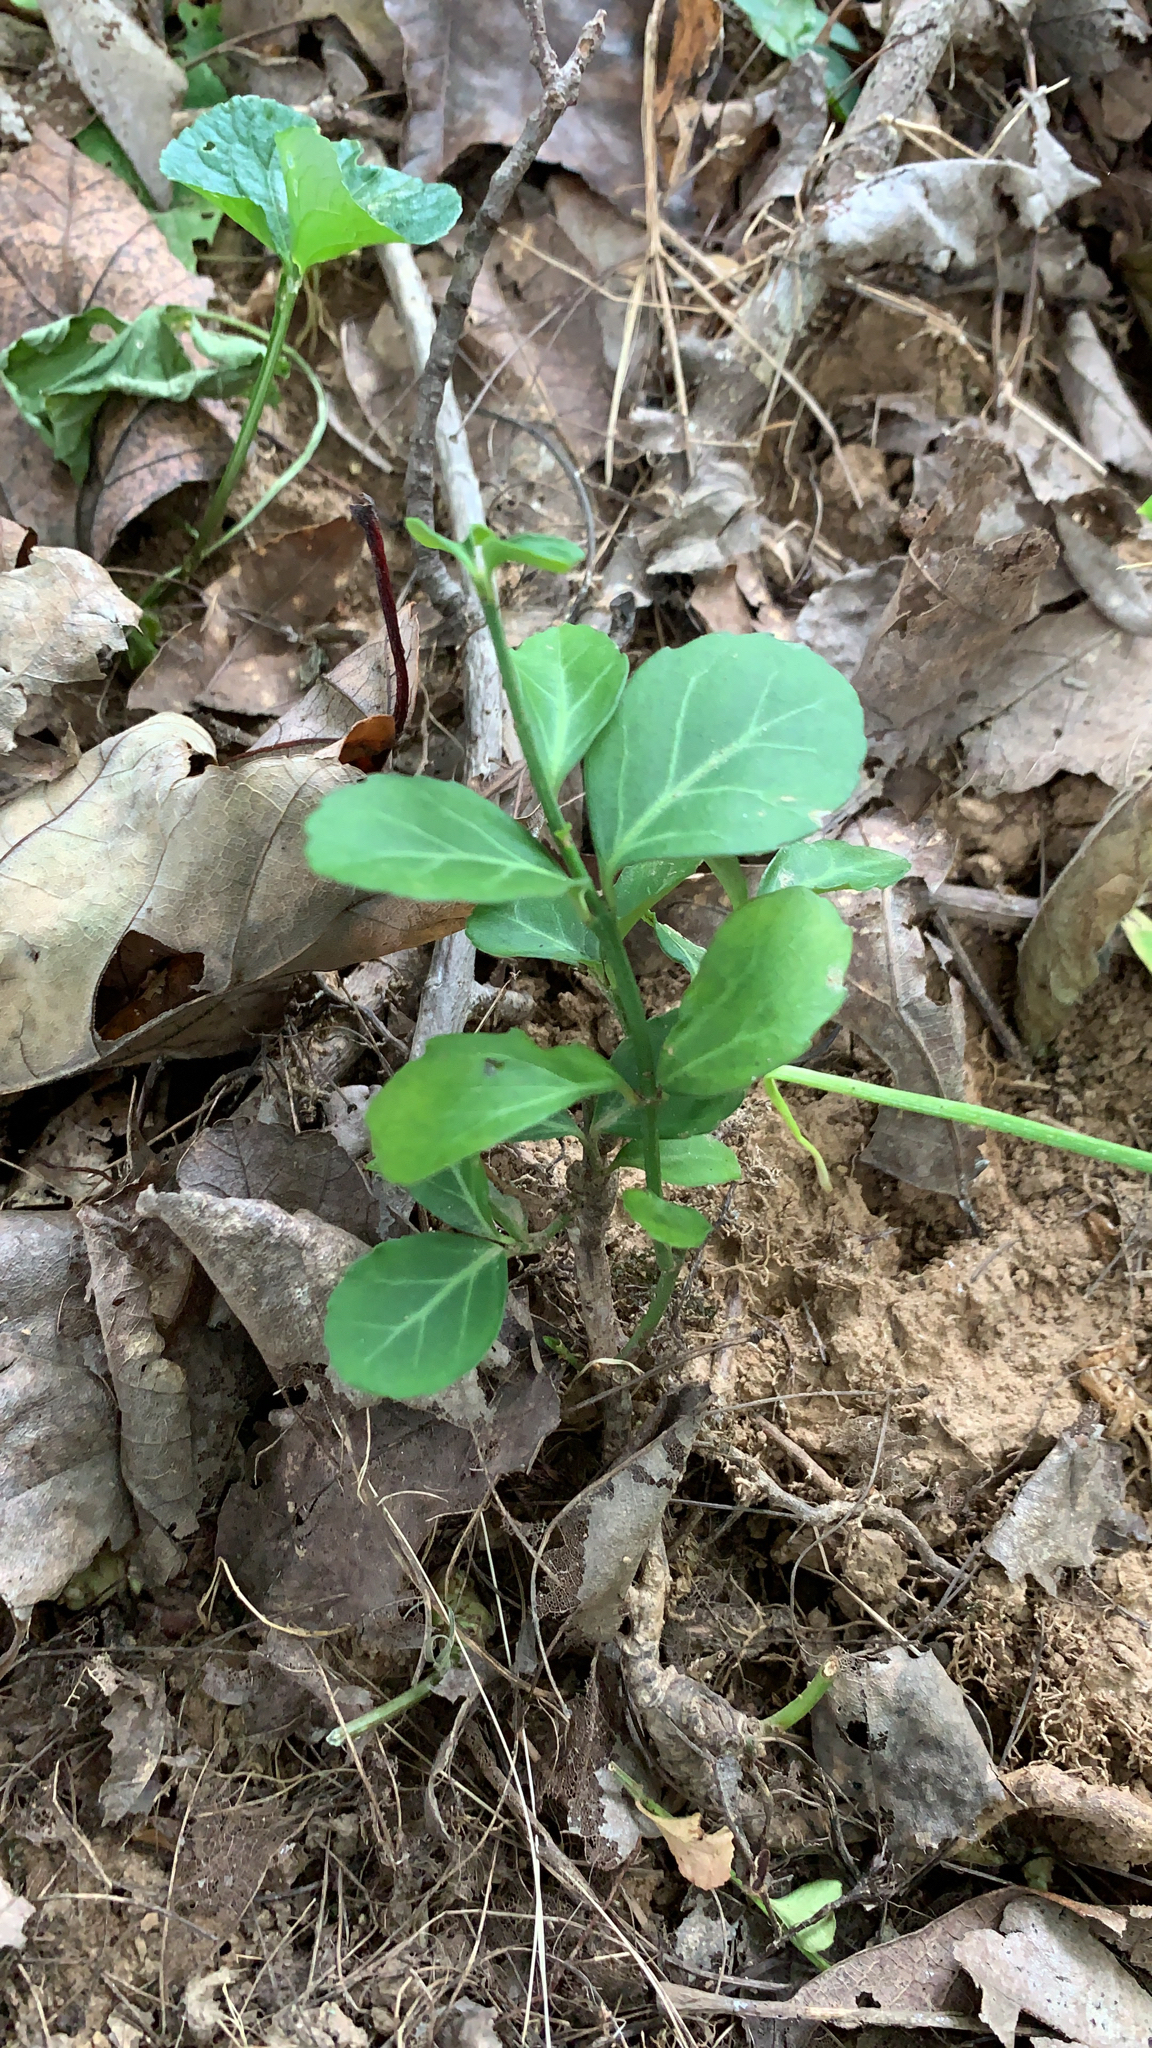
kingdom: Plantae
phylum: Tracheophyta
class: Magnoliopsida
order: Celastrales
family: Celastraceae
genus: Euonymus
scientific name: Euonymus fortunei
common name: Climbing euonymus
